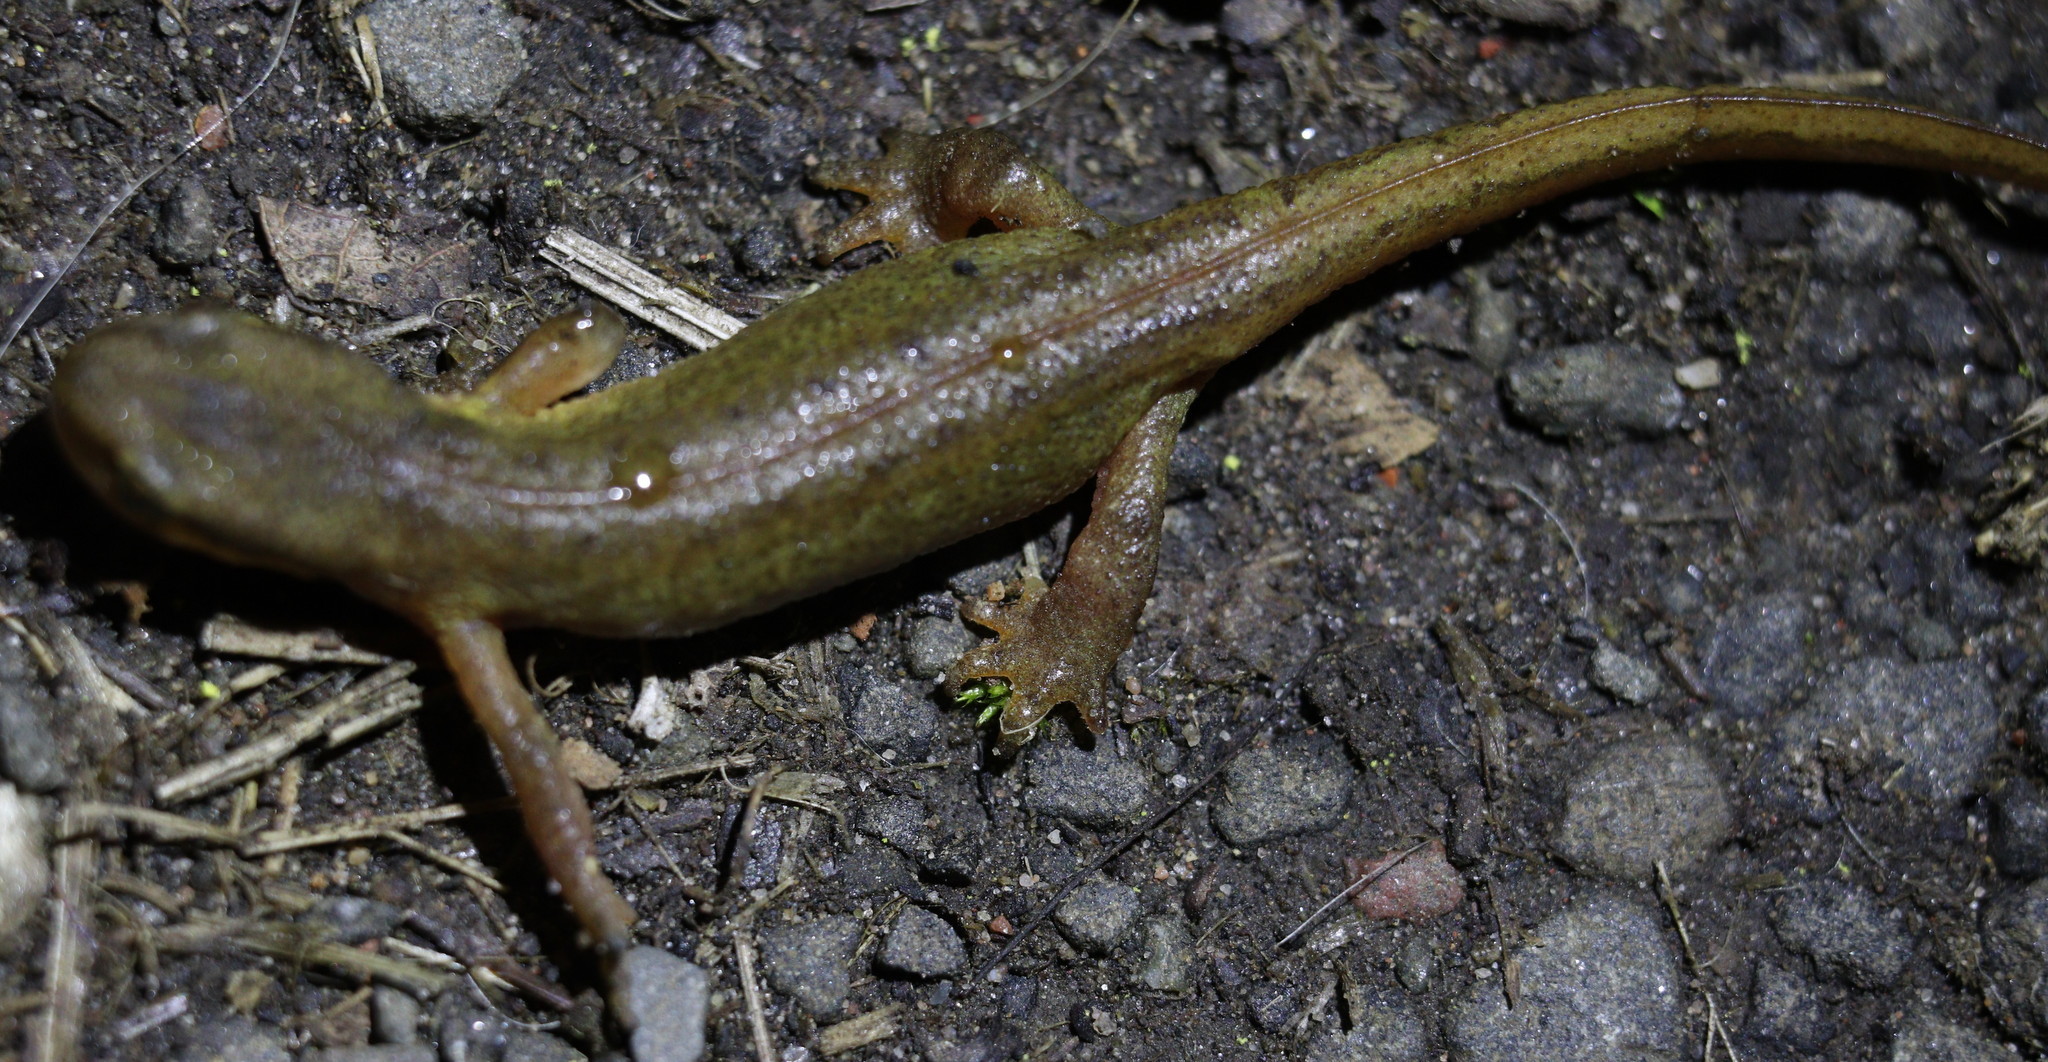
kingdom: Animalia
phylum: Chordata
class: Amphibia
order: Caudata
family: Salamandridae
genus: Lissotriton
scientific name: Lissotriton helveticus
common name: Palmate newt
